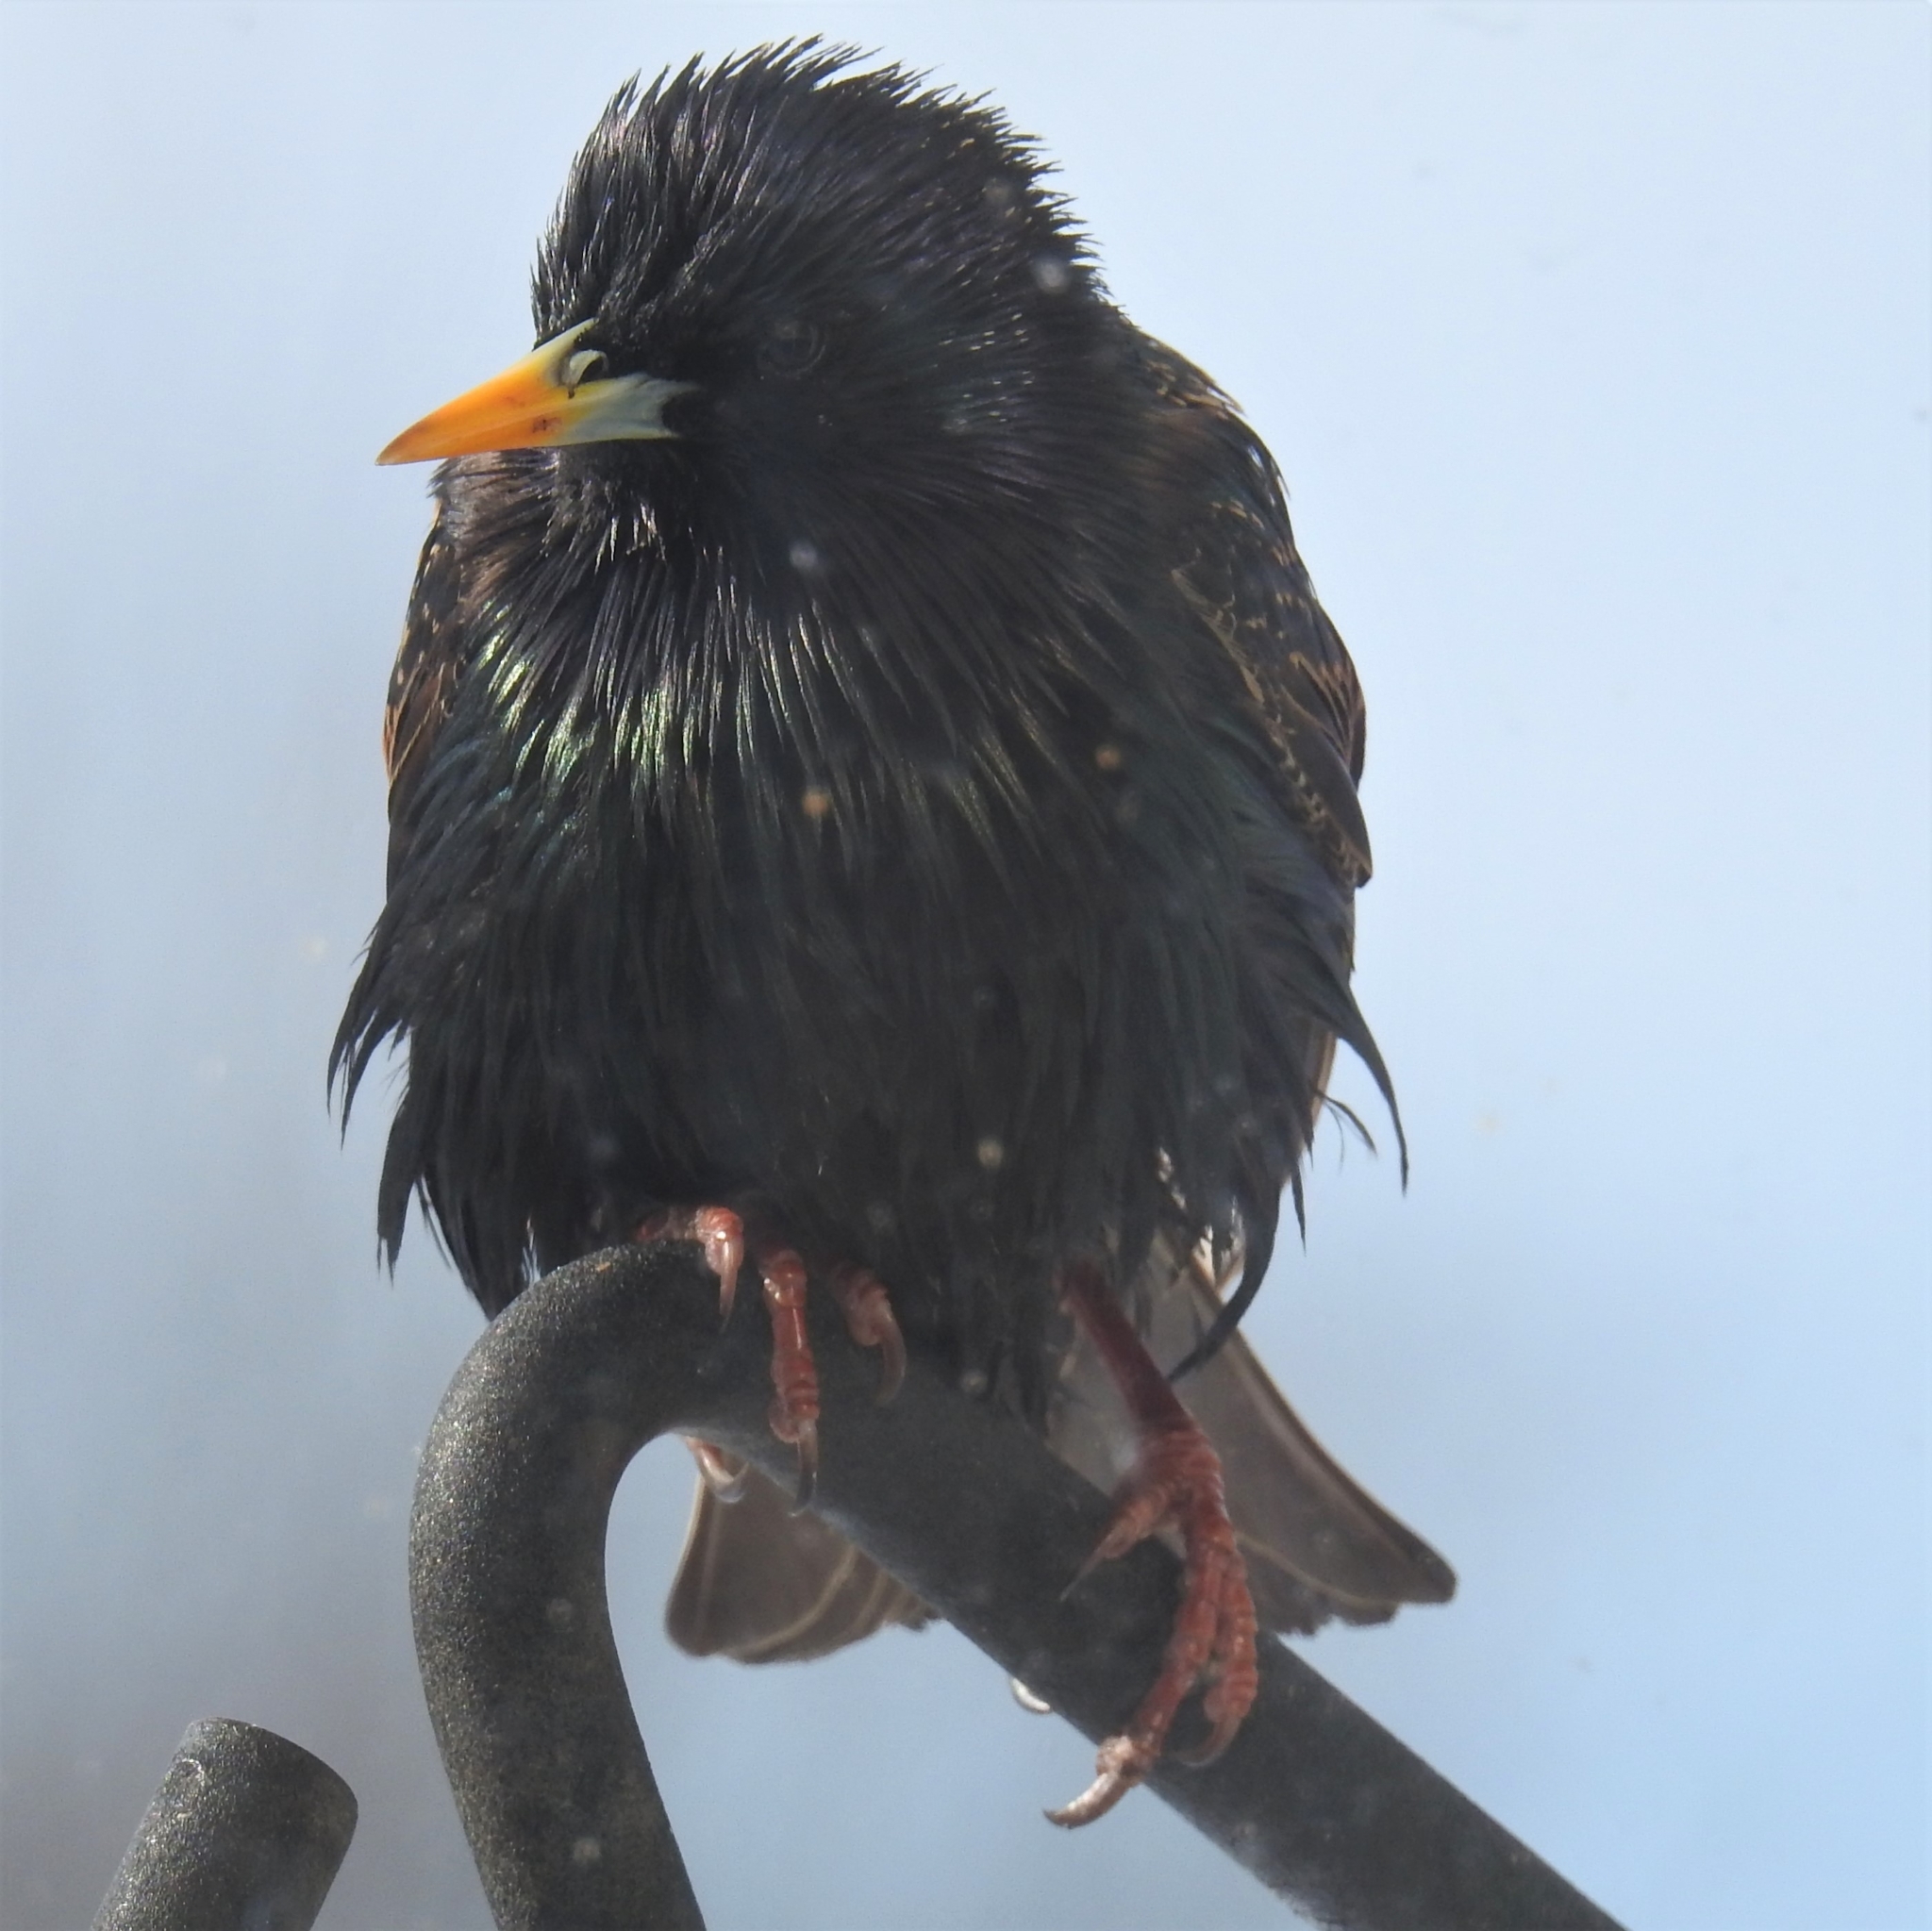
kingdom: Animalia
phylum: Chordata
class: Aves
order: Passeriformes
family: Sturnidae
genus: Sturnus
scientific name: Sturnus vulgaris
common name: Common starling
